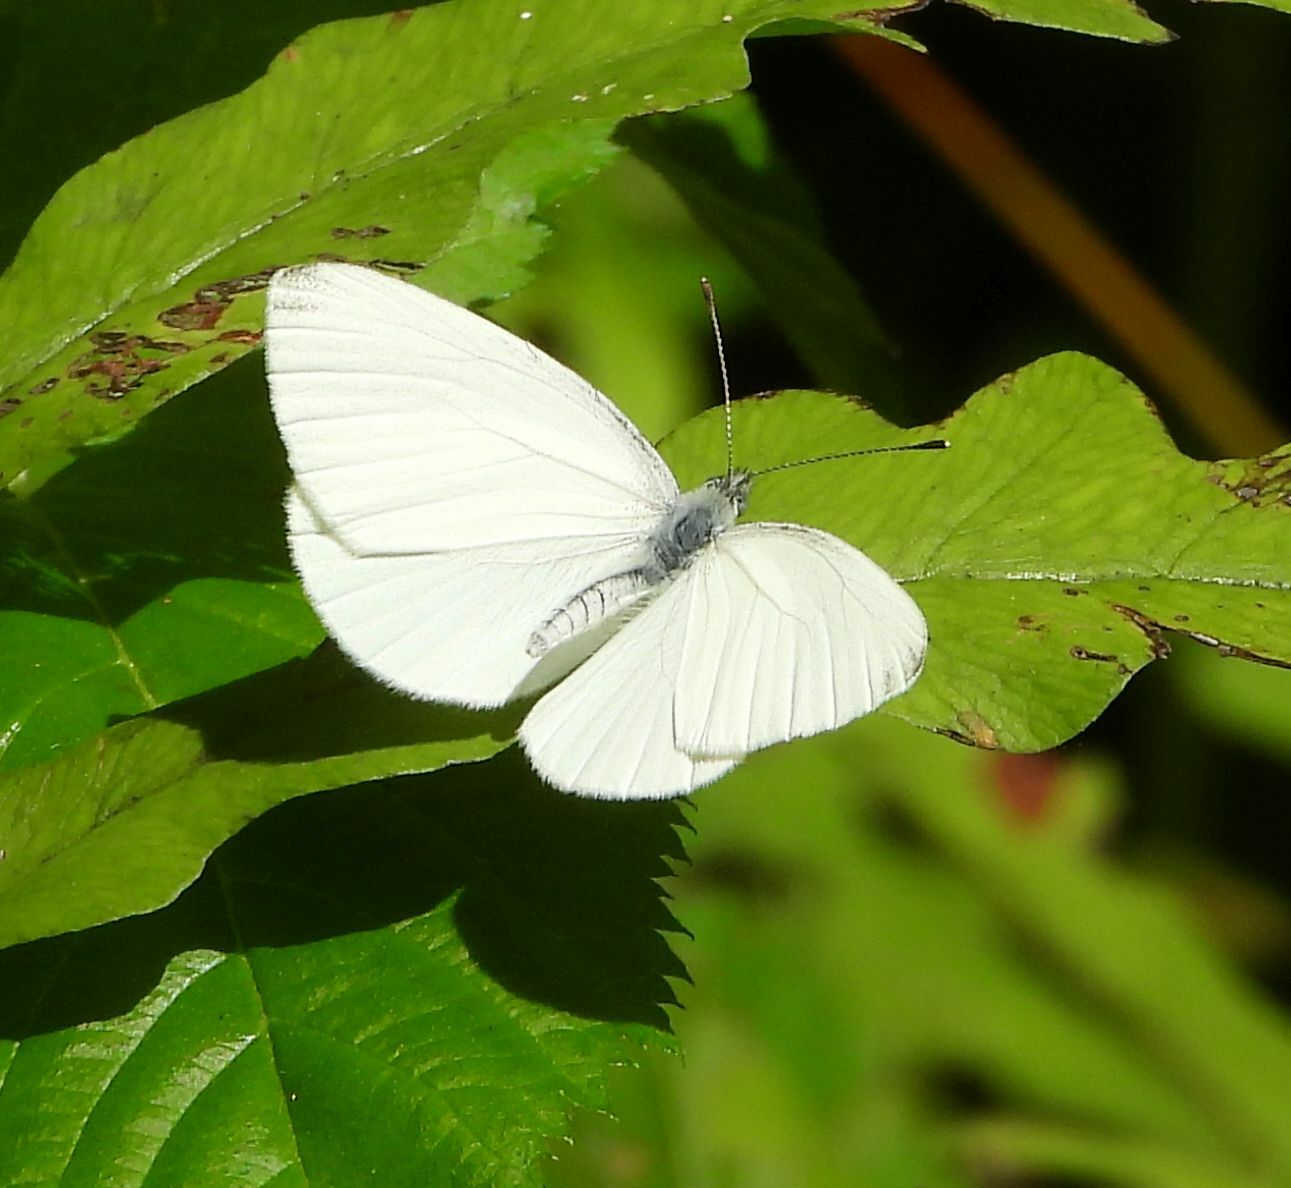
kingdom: Animalia
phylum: Arthropoda
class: Insecta
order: Lepidoptera
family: Pieridae
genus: Pieris
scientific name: Pieris oleracea
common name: Mustard white
